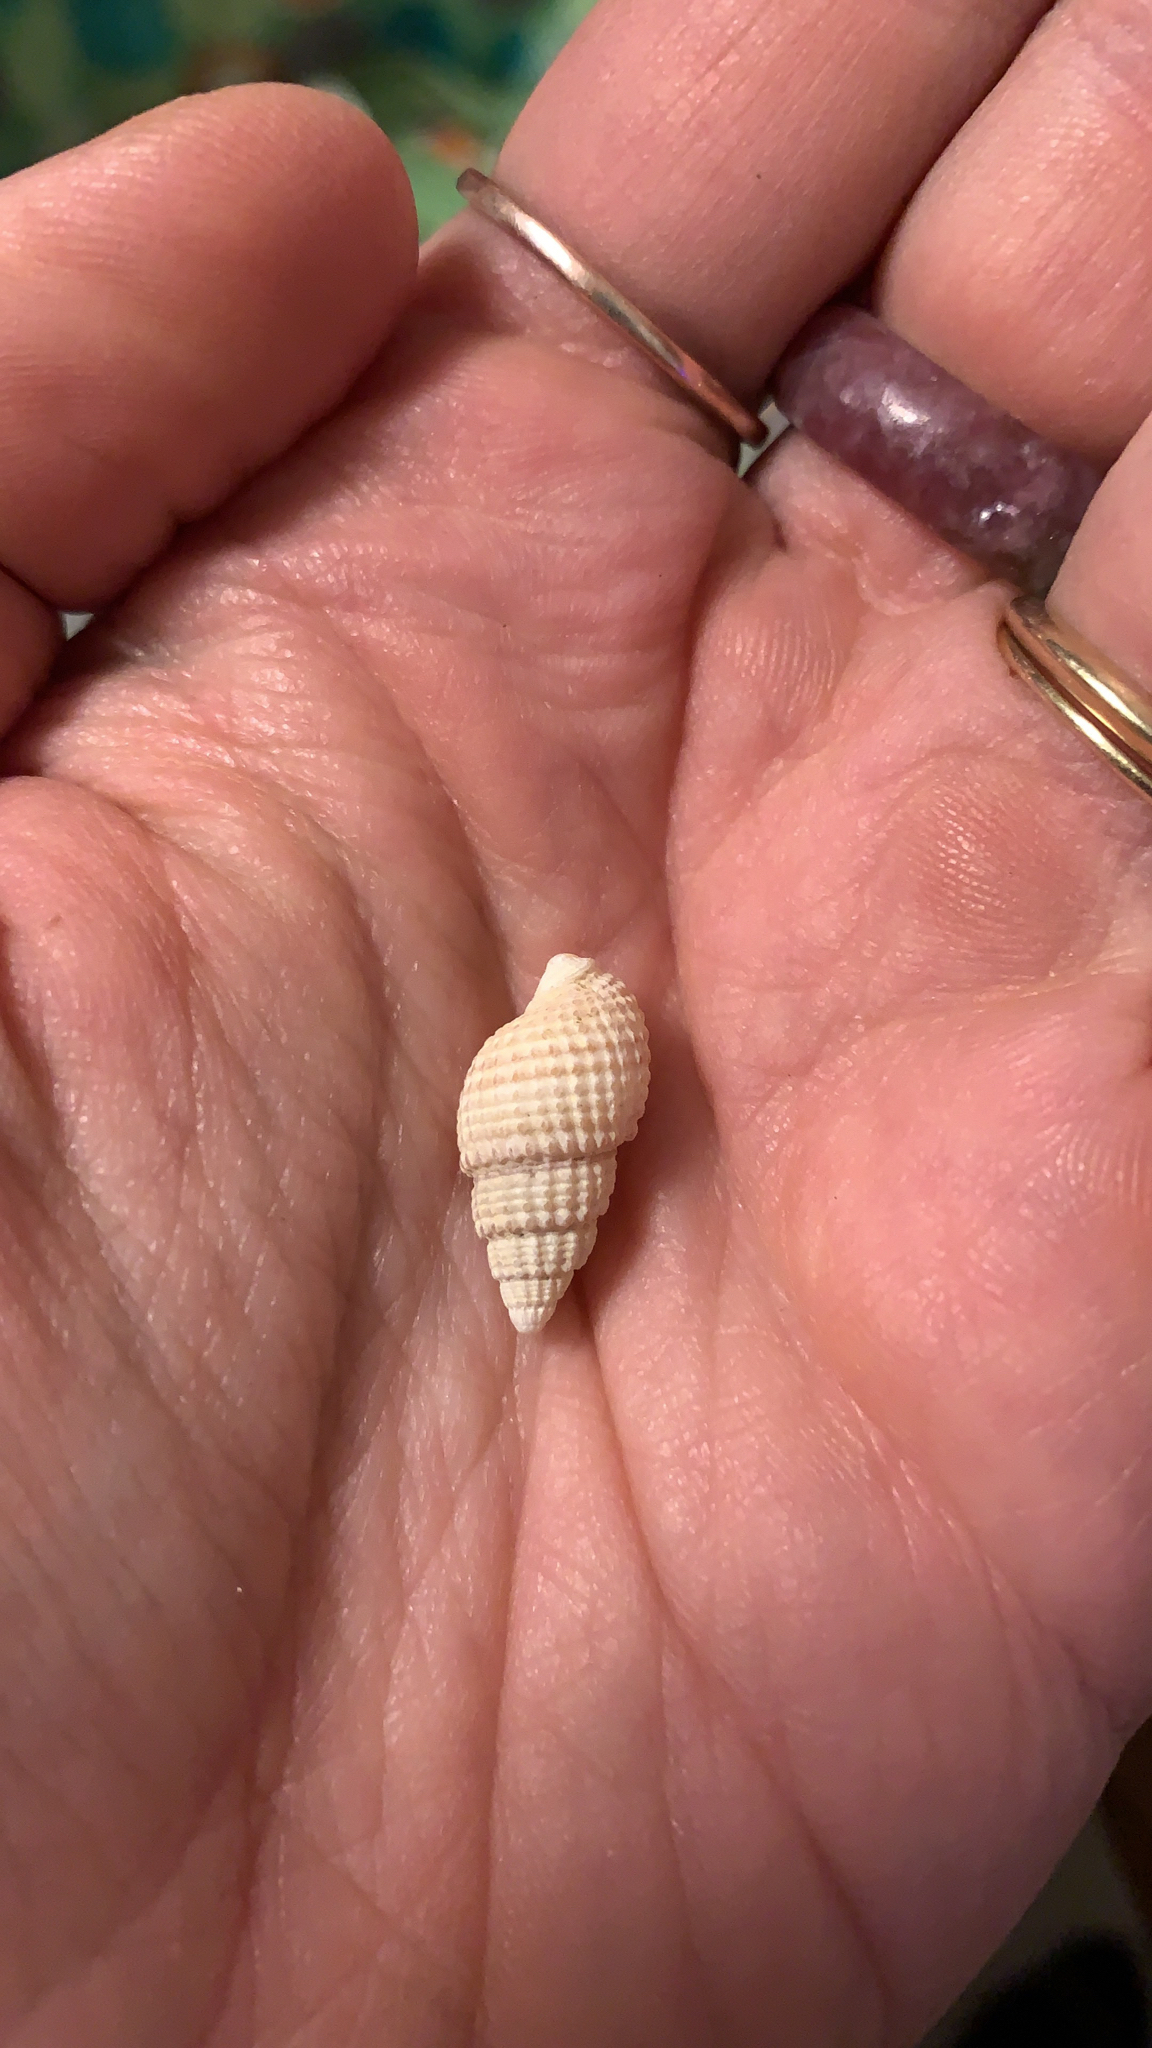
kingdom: Animalia
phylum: Mollusca
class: Gastropoda
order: Neogastropoda
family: Nassariidae
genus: Ilyanassa
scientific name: Ilyanassa trivittata
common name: Three-line mudsnail
